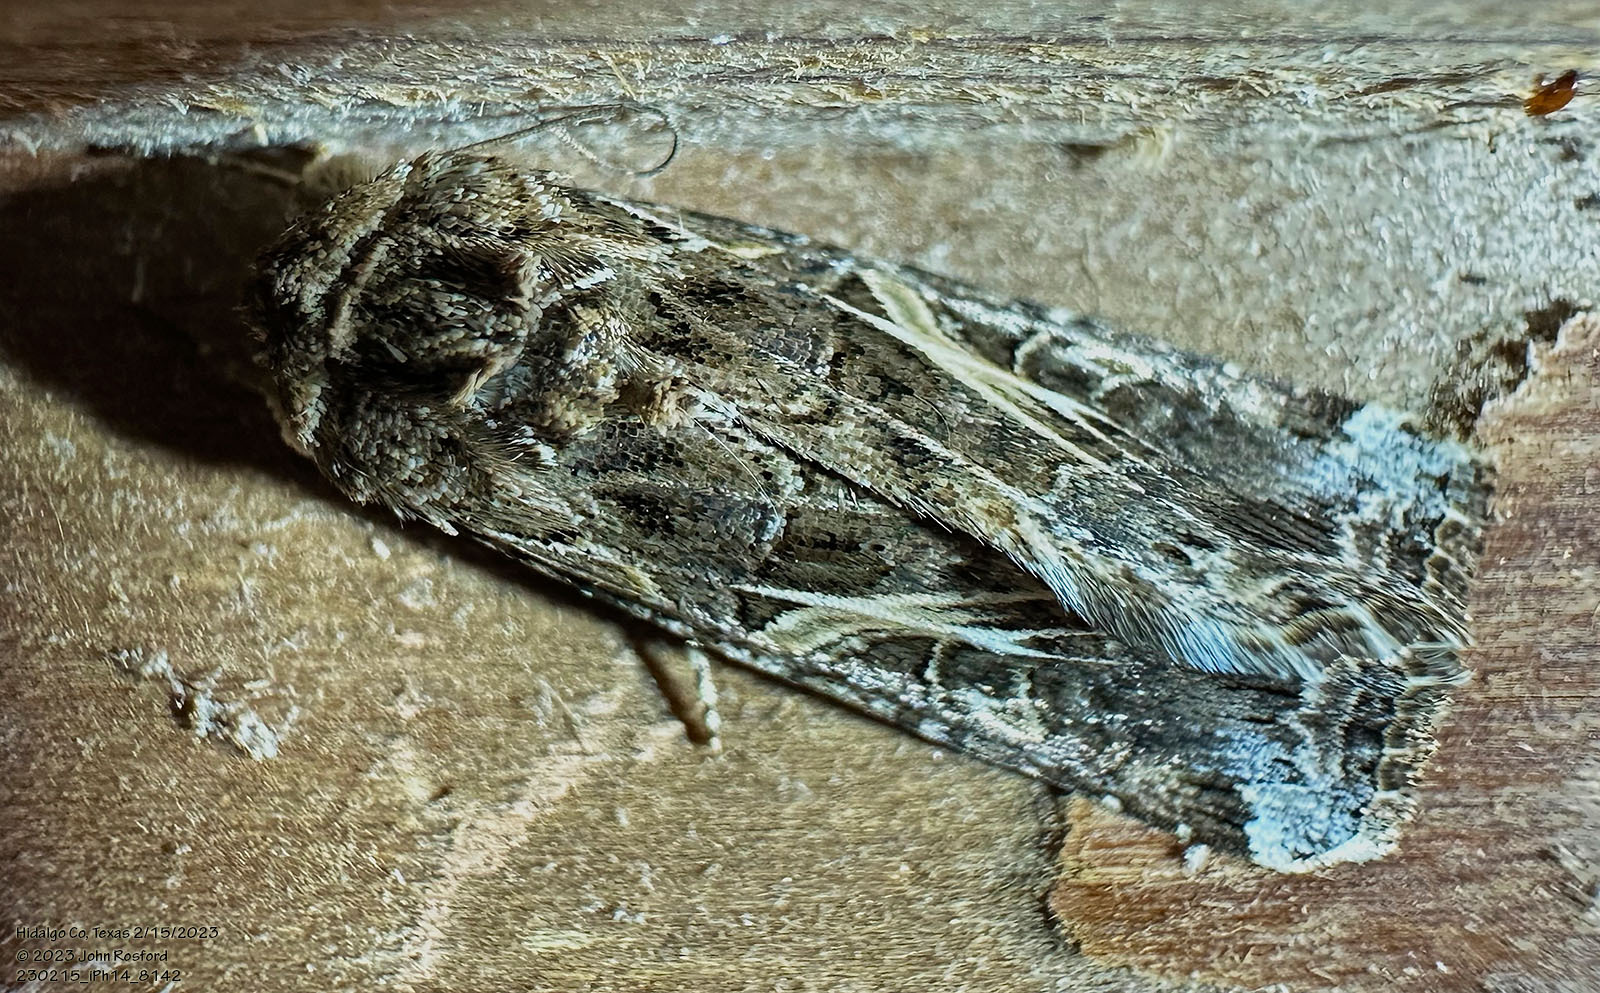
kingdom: Animalia
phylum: Arthropoda
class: Insecta
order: Lepidoptera
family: Noctuidae
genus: Spodoptera
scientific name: Spodoptera ornithogalli
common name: Yellow-striped armyworm
